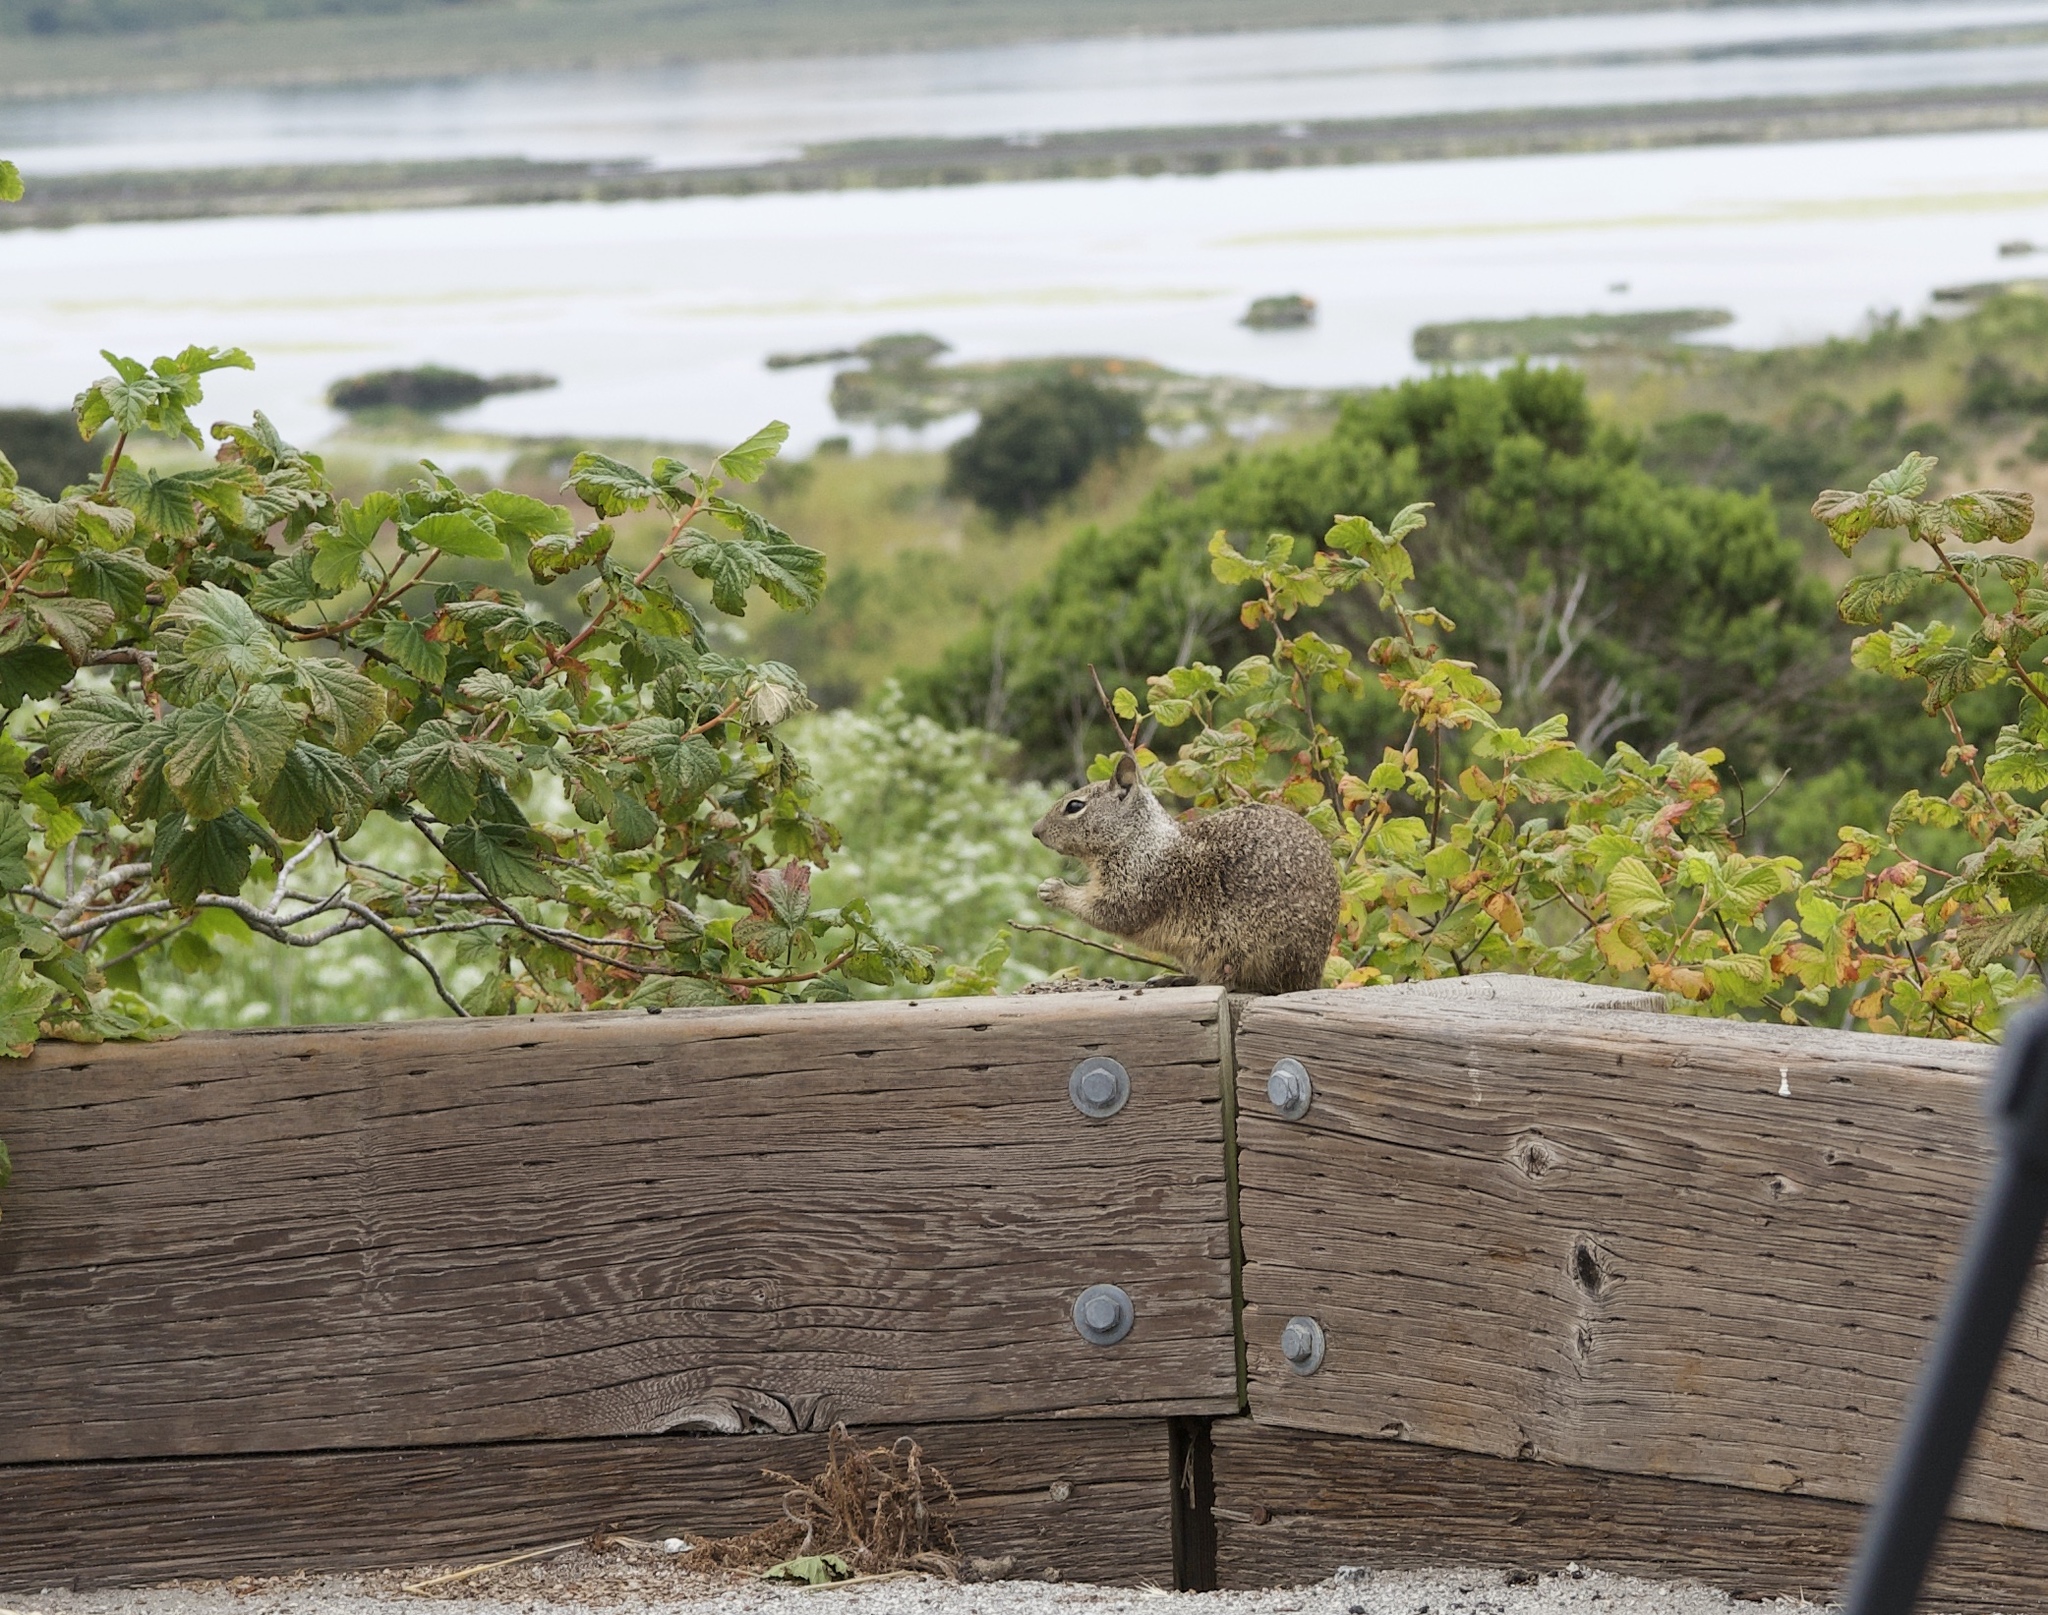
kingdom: Animalia
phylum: Chordata
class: Mammalia
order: Rodentia
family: Sciuridae
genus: Otospermophilus
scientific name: Otospermophilus beecheyi
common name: California ground squirrel
